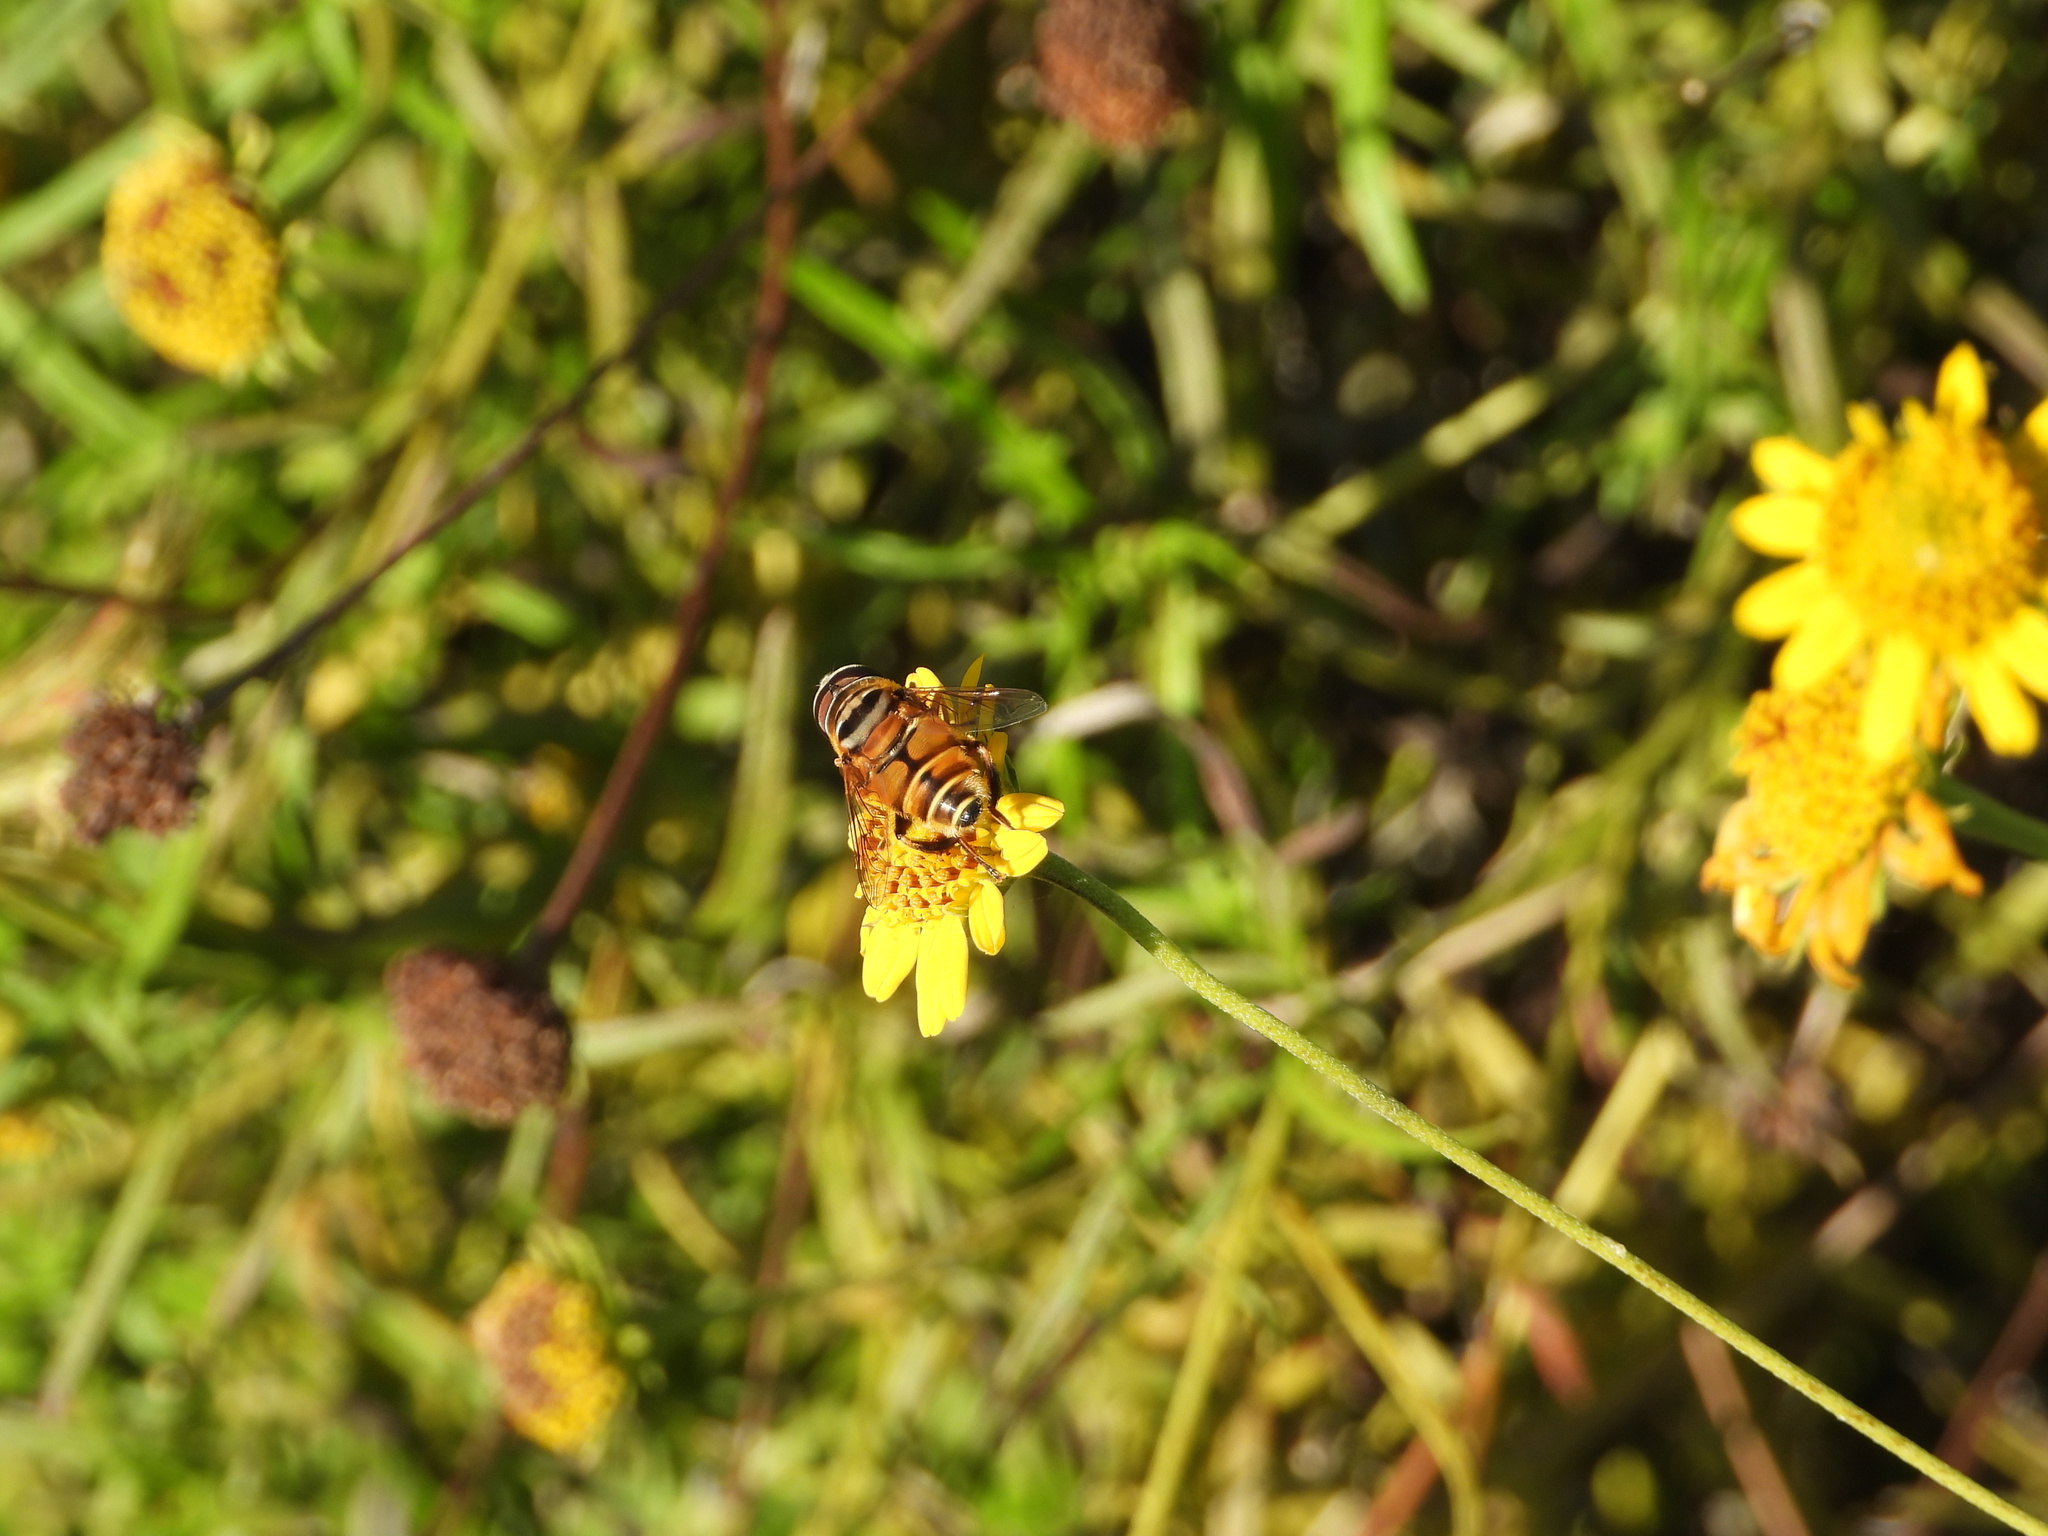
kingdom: Animalia
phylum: Arthropoda
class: Insecta
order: Diptera
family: Syrphidae
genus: Palpada
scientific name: Palpada vinetorum
